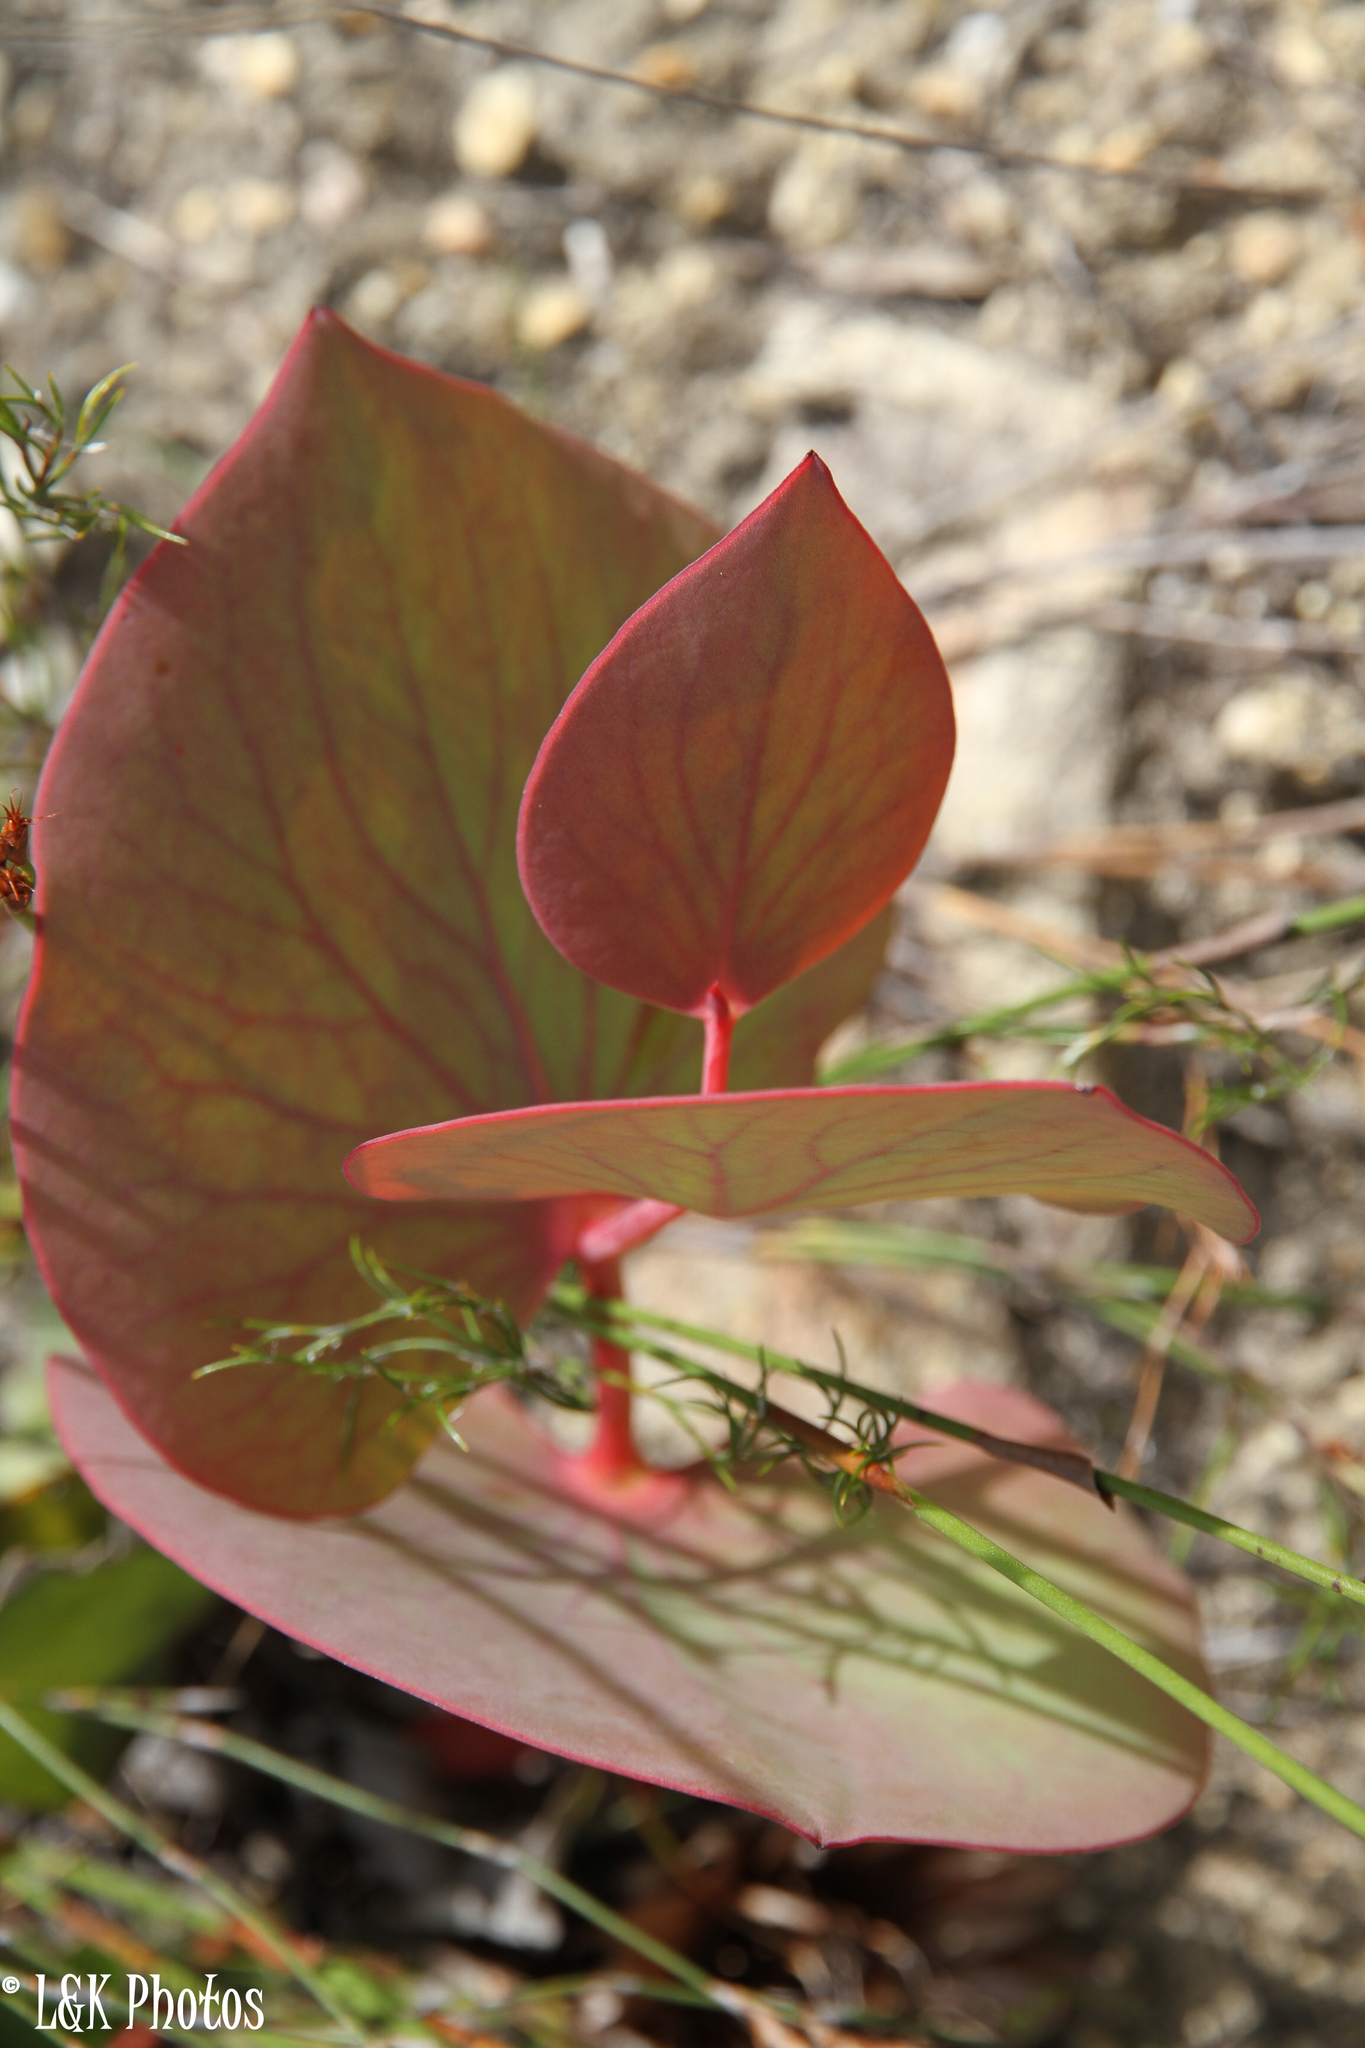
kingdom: Plantae
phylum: Tracheophyta
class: Magnoliopsida
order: Proteales
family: Proteaceae
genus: Protea
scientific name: Protea cordata
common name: Heart-leaf sugarbush
